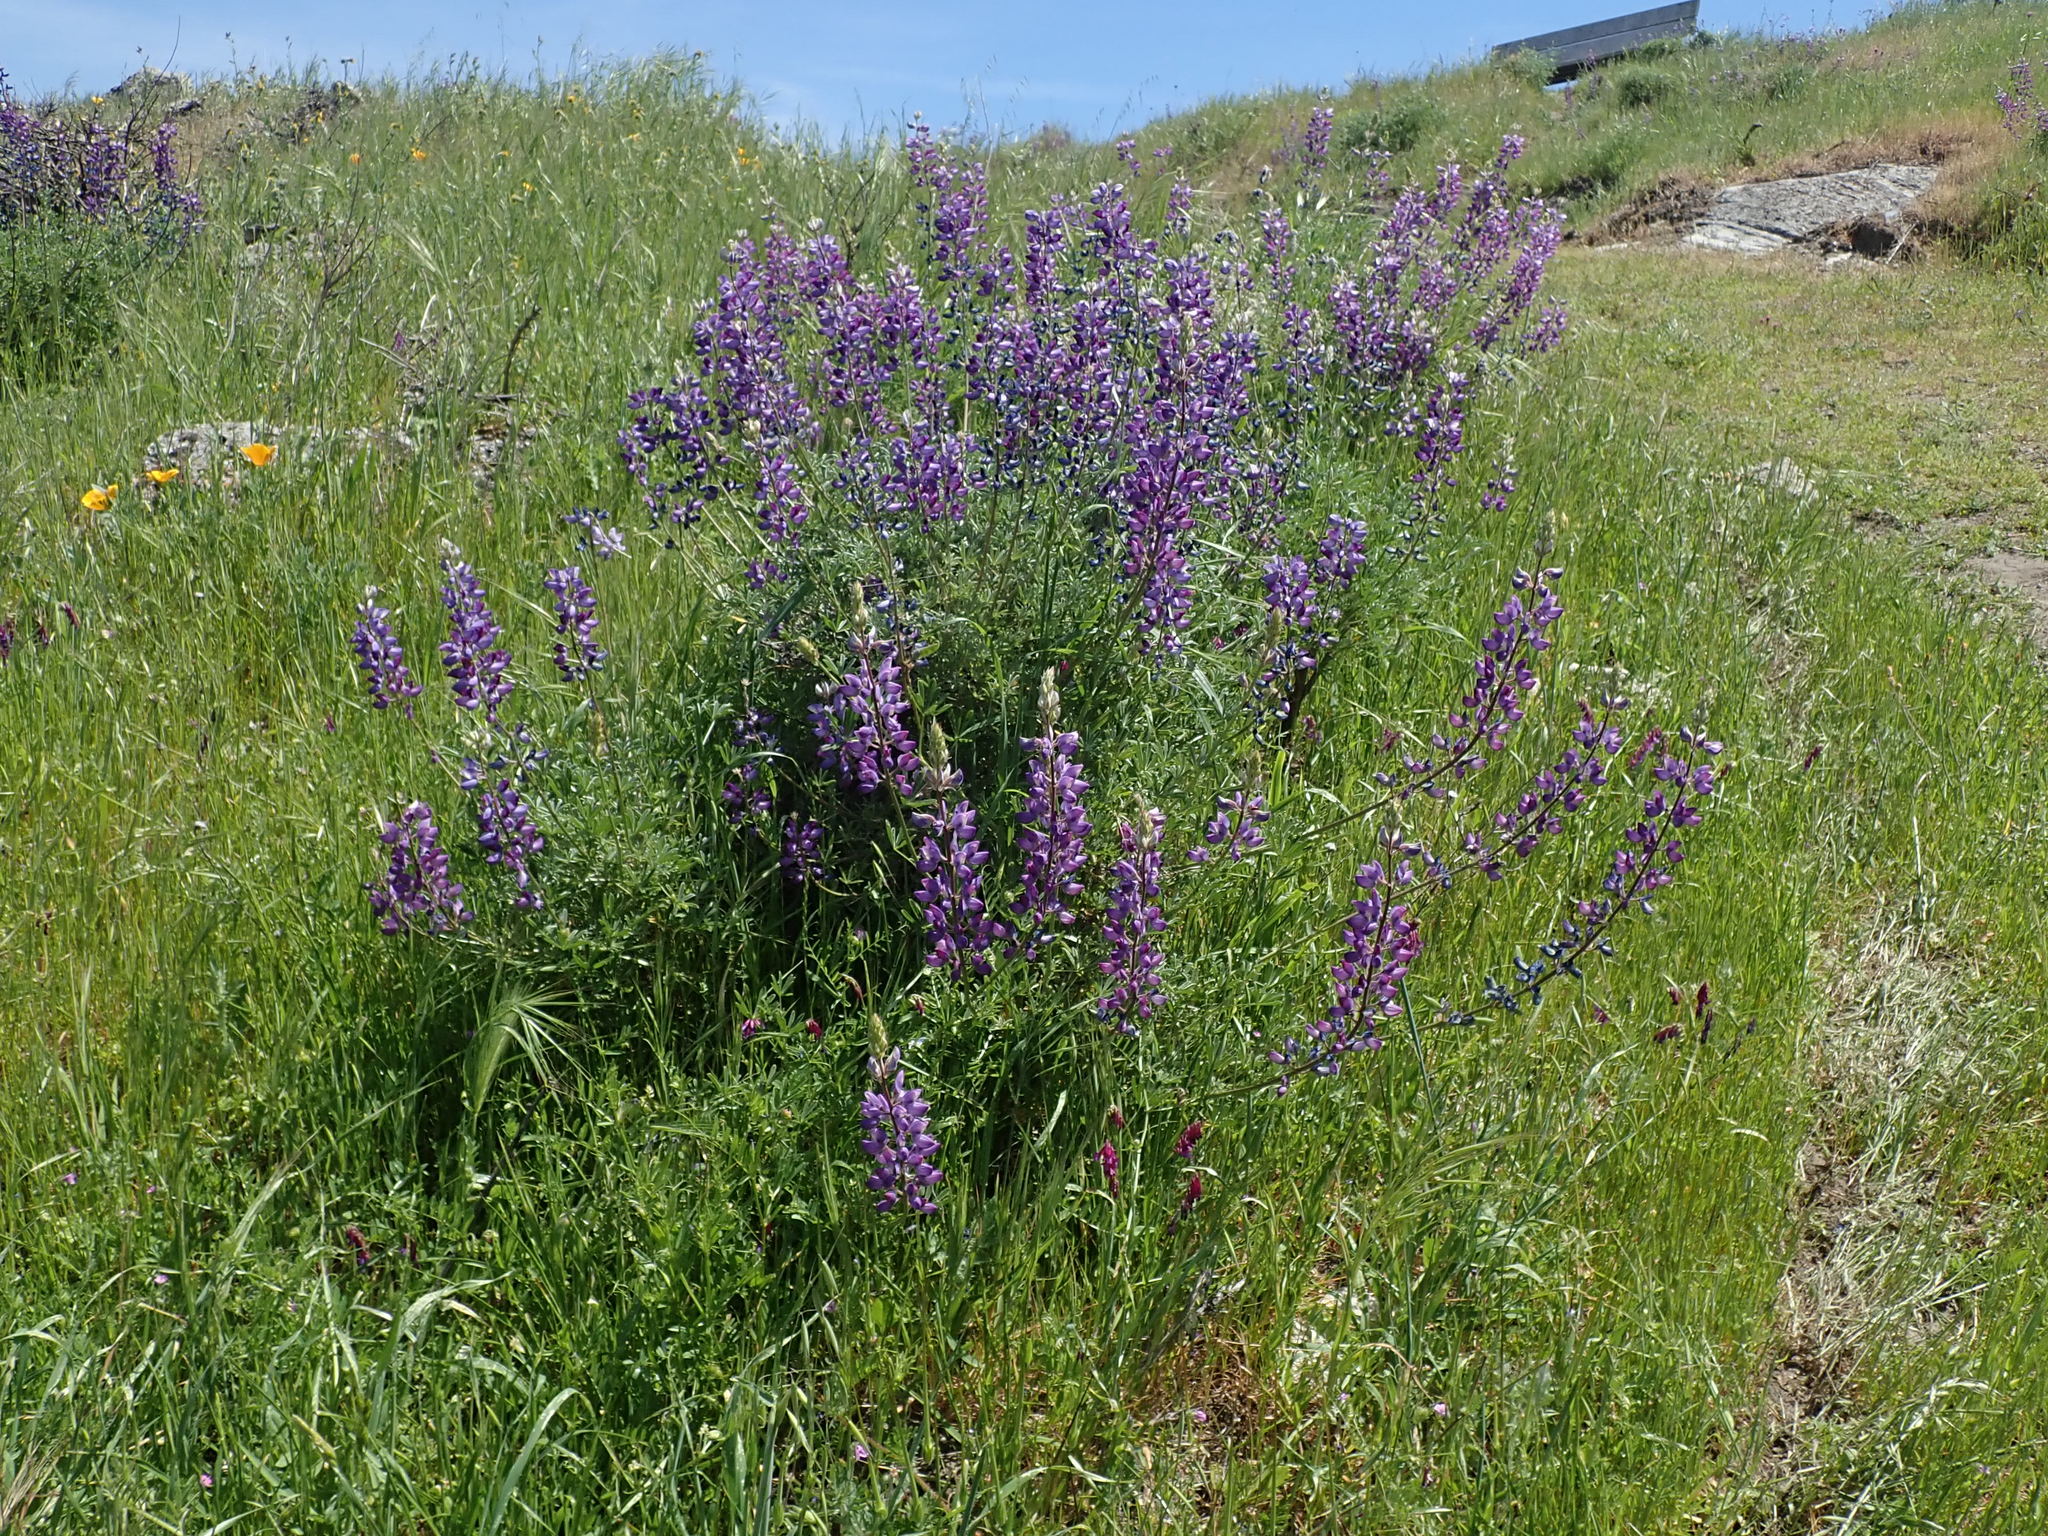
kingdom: Plantae
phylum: Tracheophyta
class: Magnoliopsida
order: Fabales
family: Fabaceae
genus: Lupinus
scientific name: Lupinus albifrons
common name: Foothill lupine
